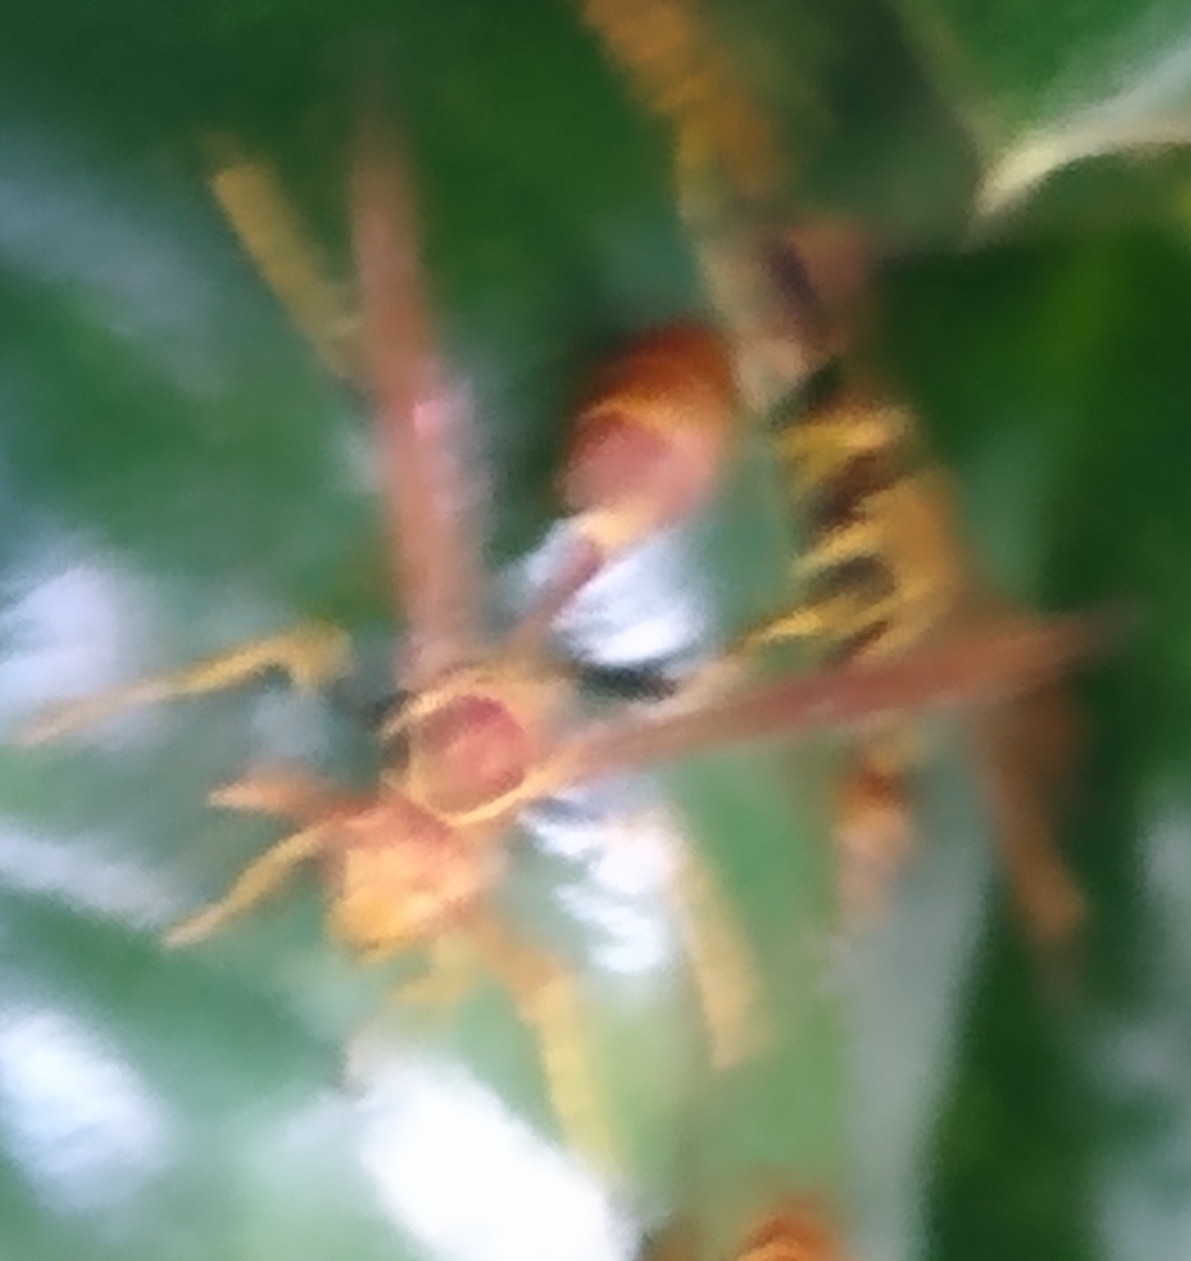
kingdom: Animalia
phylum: Arthropoda
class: Insecta
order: Hymenoptera
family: Vespidae
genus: Mischocyttarus
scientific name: Mischocyttarus mexicanus
